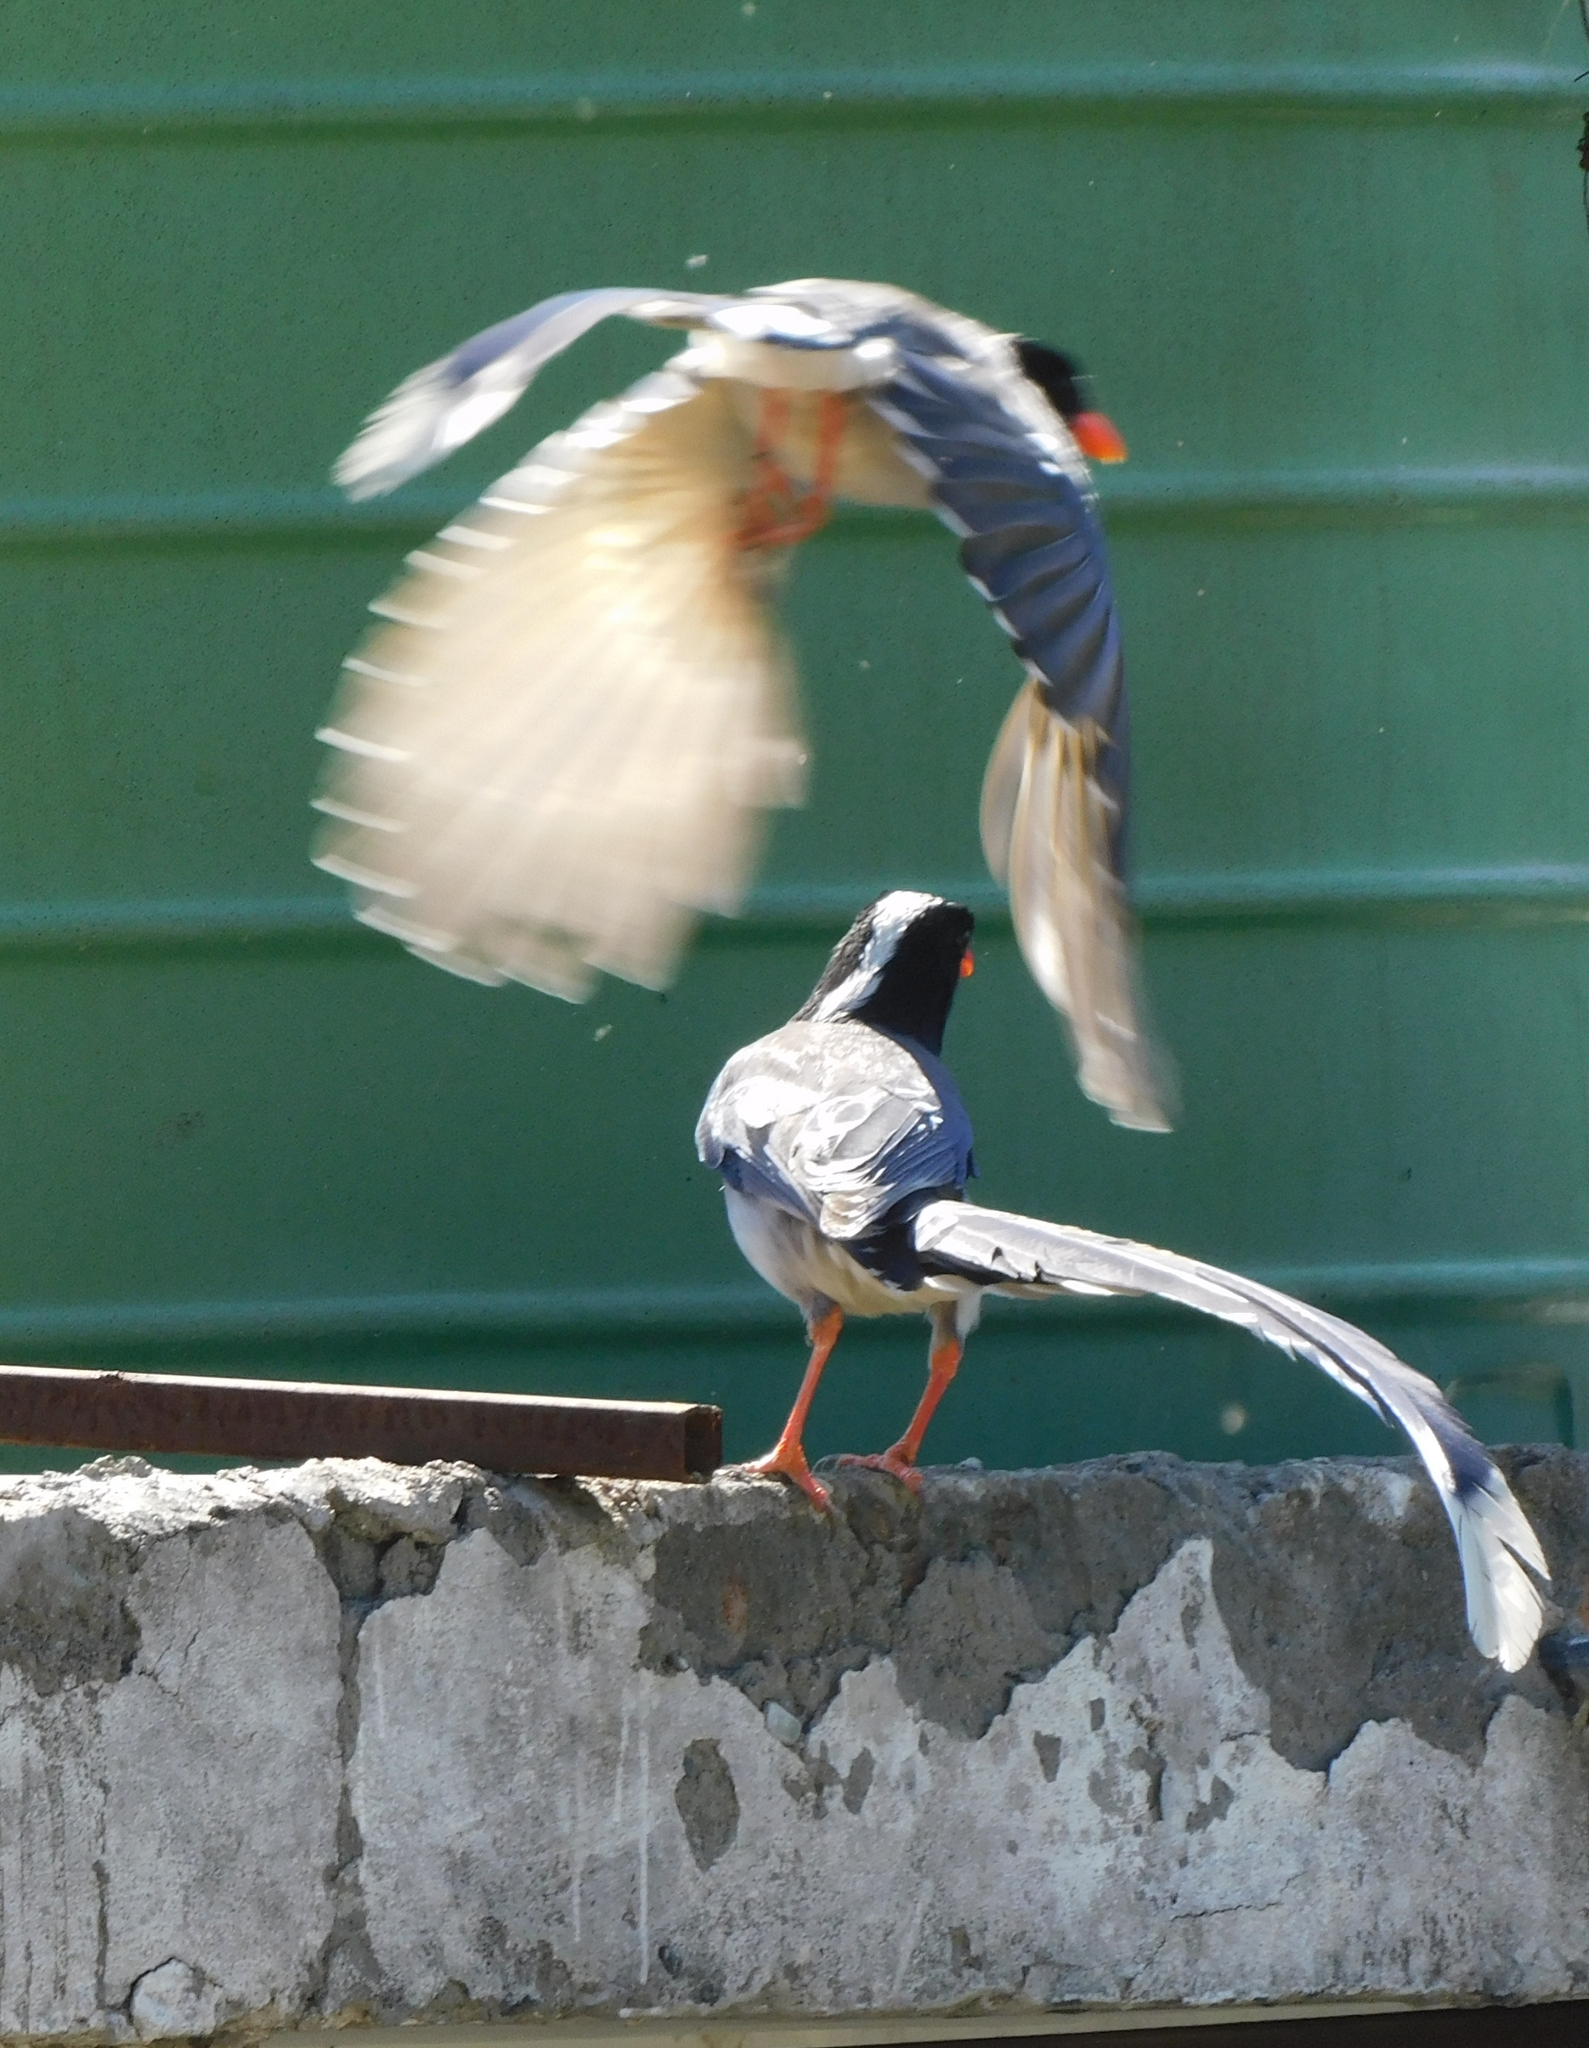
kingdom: Animalia
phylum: Chordata
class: Aves
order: Passeriformes
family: Corvidae
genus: Urocissa
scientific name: Urocissa erythroryncha
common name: Red-billed blue magpie
